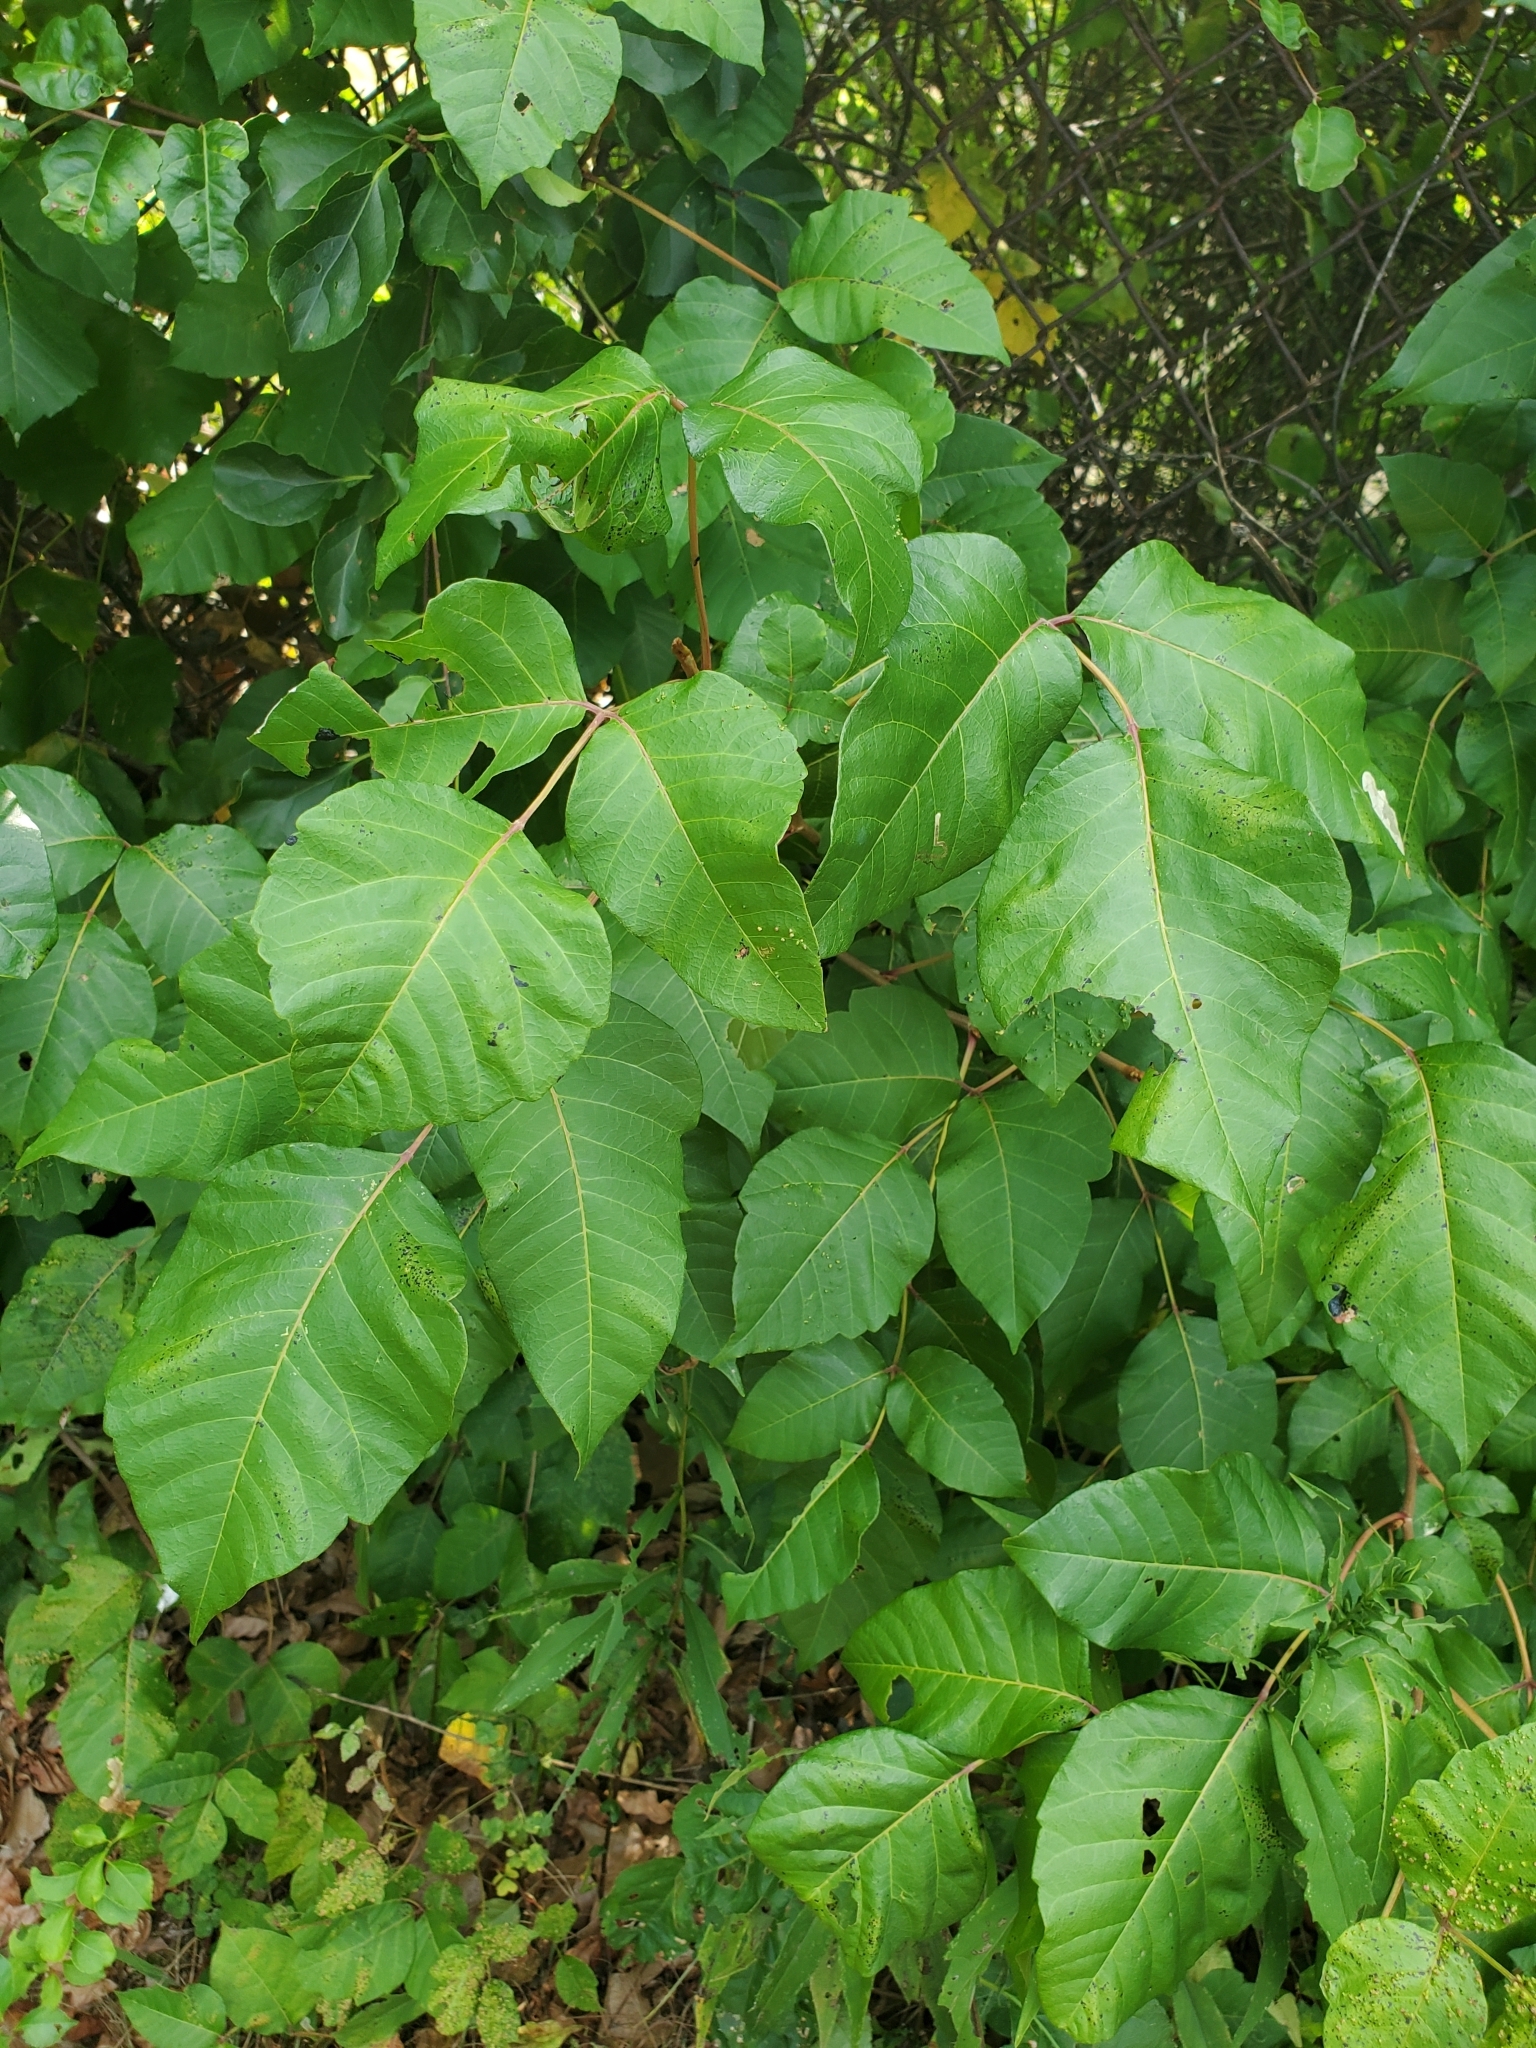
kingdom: Plantae
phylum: Tracheophyta
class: Magnoliopsida
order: Sapindales
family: Anacardiaceae
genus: Toxicodendron
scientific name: Toxicodendron radicans
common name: Poison ivy
